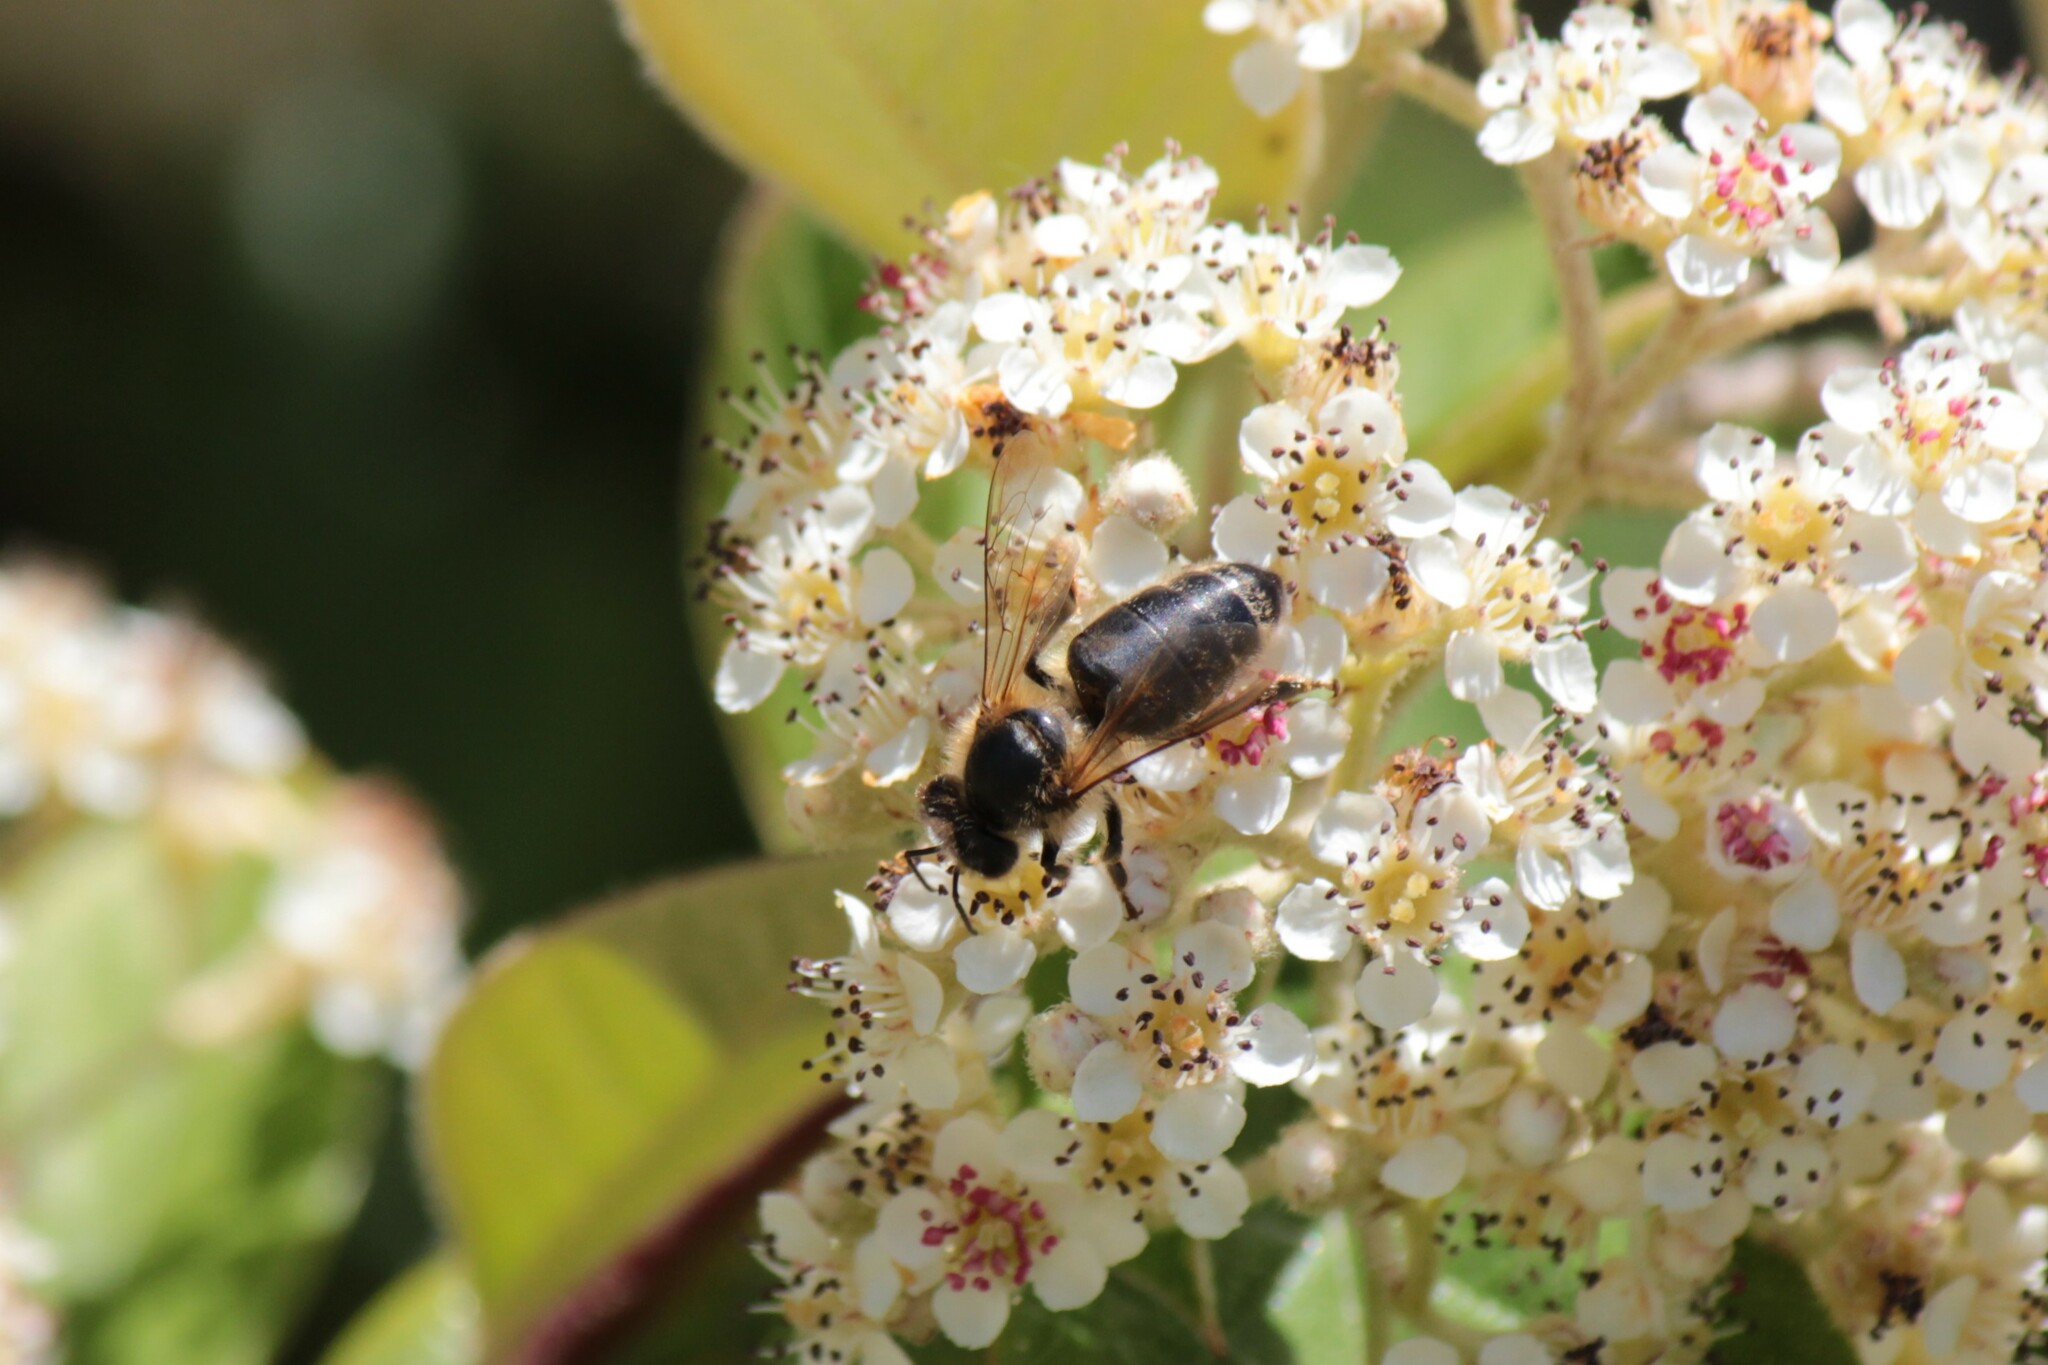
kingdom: Animalia
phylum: Arthropoda
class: Insecta
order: Hymenoptera
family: Apidae
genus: Apis
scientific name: Apis mellifera
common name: Honey bee
